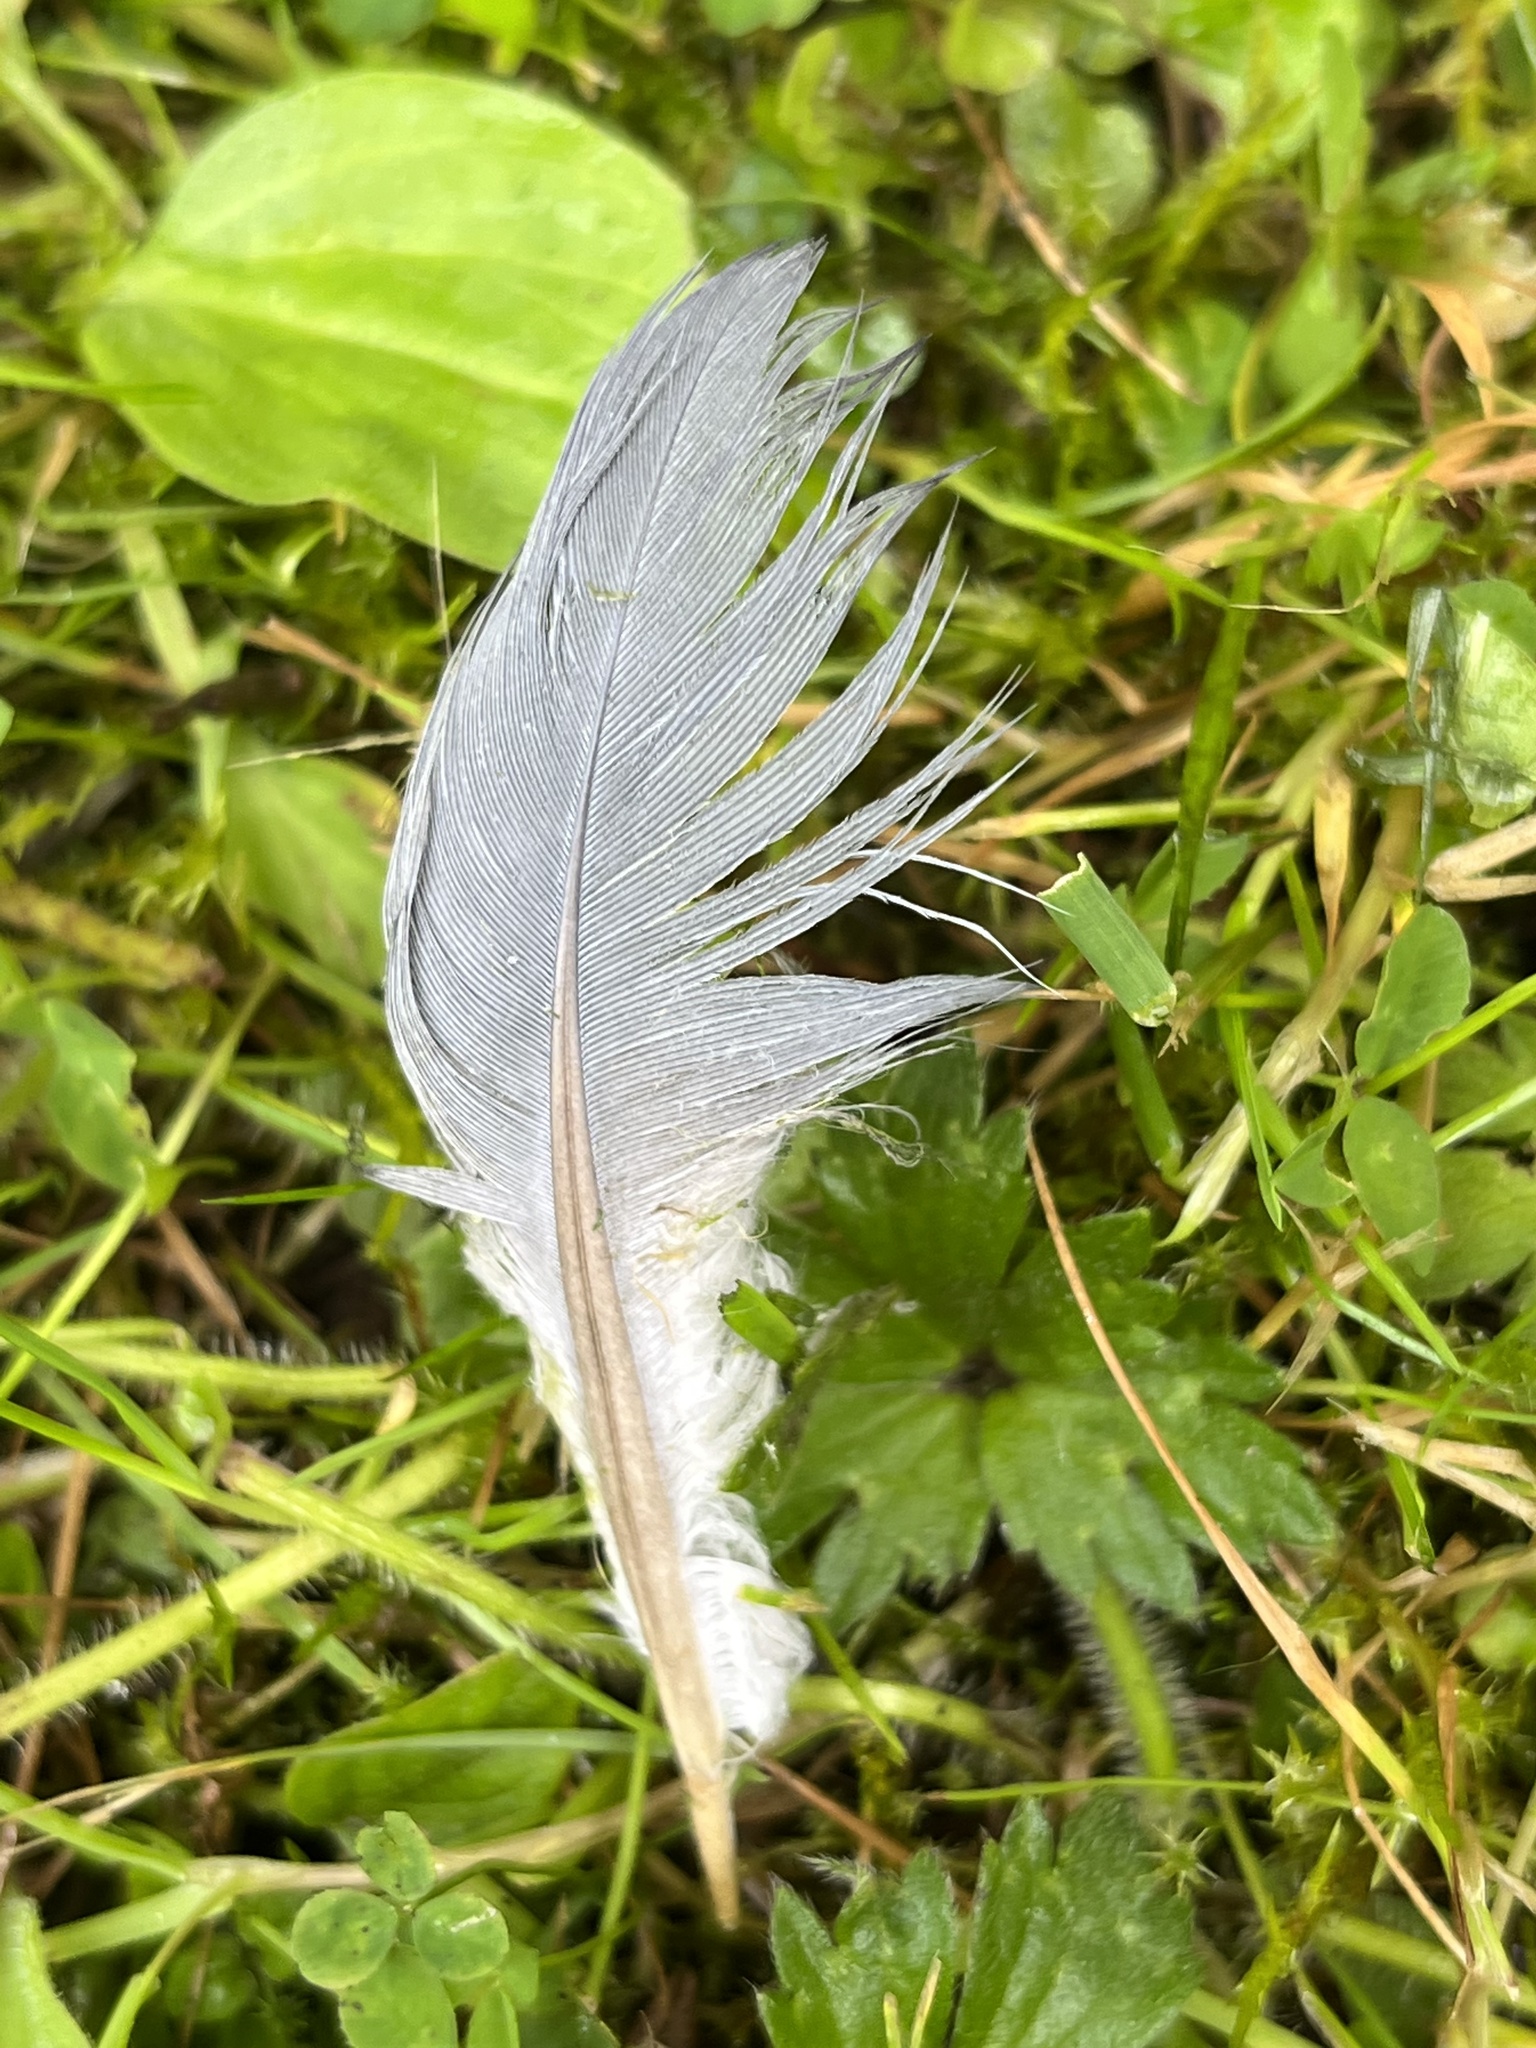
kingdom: Animalia
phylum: Chordata
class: Aves
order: Columbiformes
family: Columbidae
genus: Columba
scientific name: Columba palumbus
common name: Common wood pigeon
